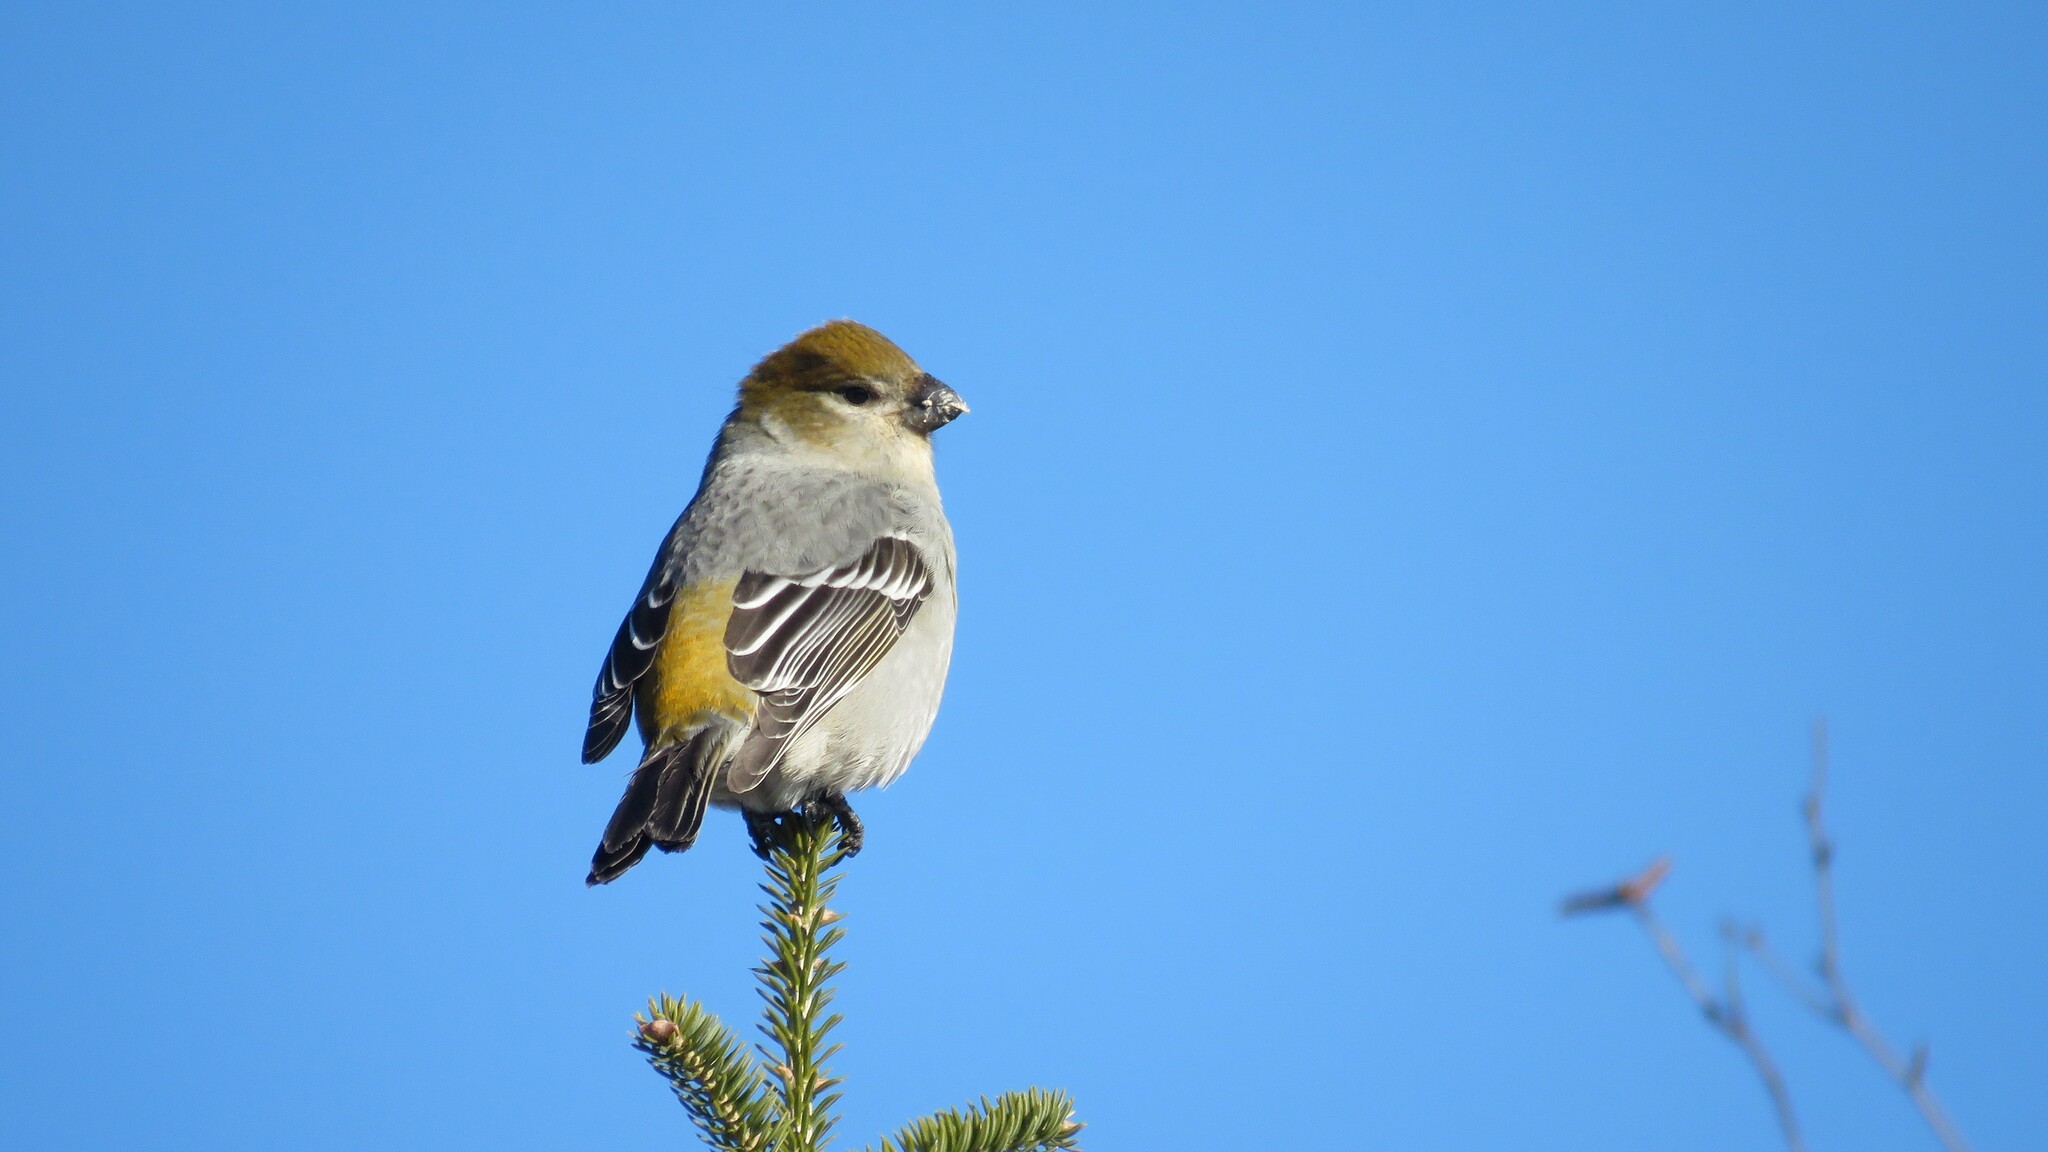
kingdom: Animalia
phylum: Chordata
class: Aves
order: Passeriformes
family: Fringillidae
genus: Pinicola
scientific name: Pinicola enucleator
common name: Pine grosbeak
